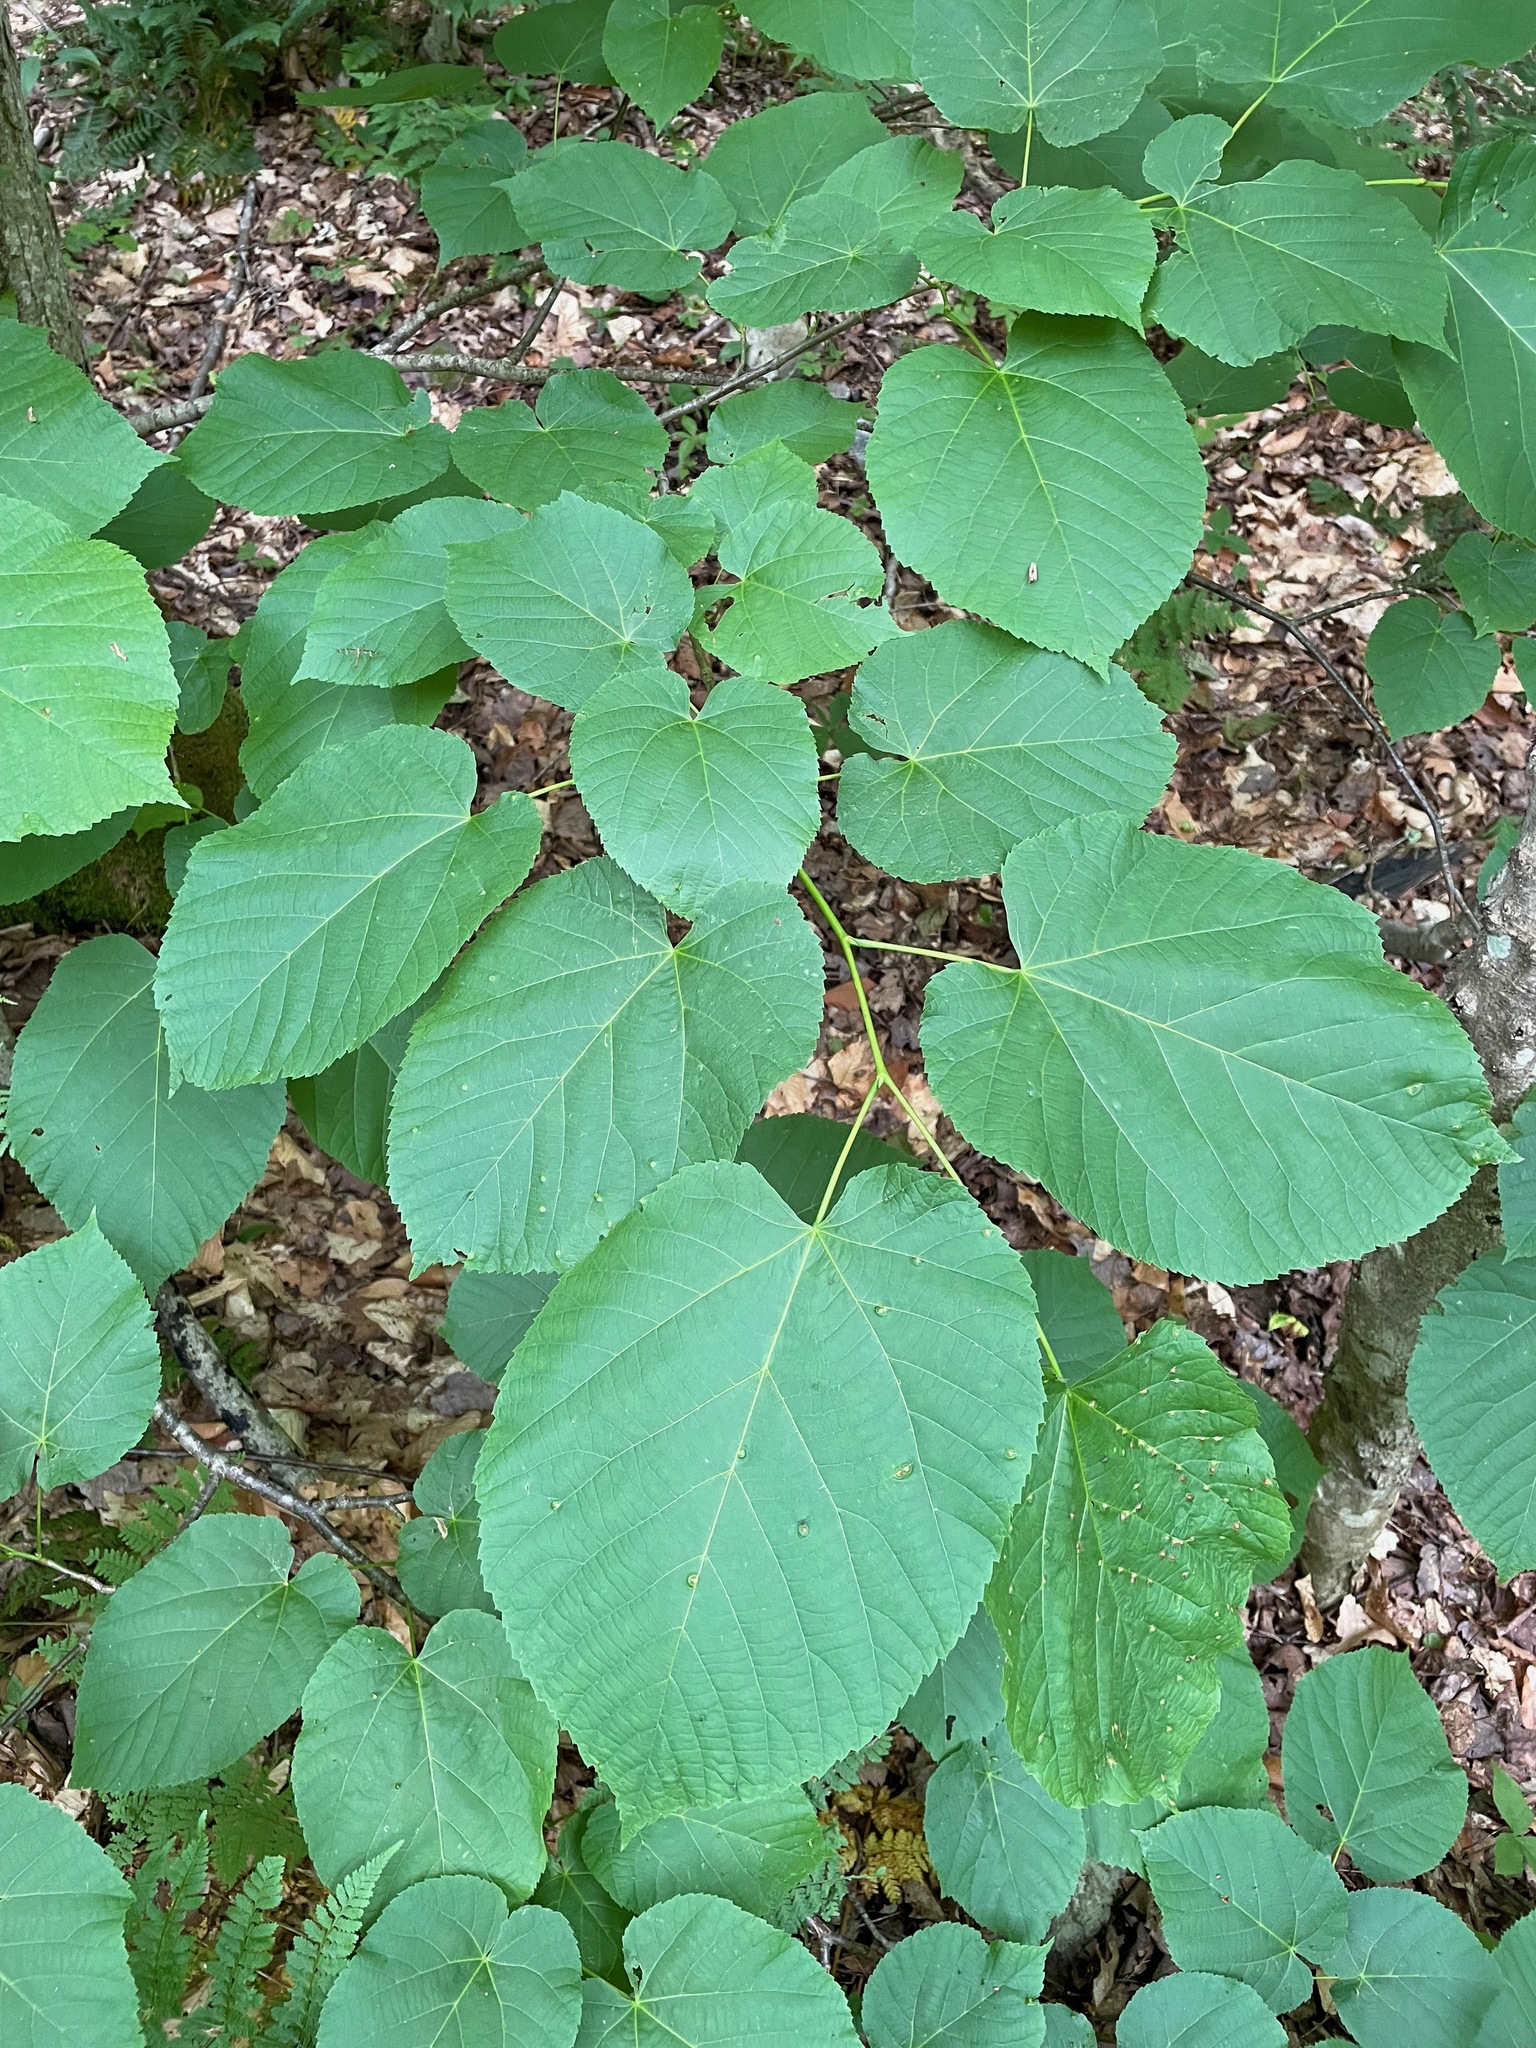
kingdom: Plantae
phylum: Tracheophyta
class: Magnoliopsida
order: Malvales
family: Malvaceae
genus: Tilia
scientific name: Tilia americana
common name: Basswood
